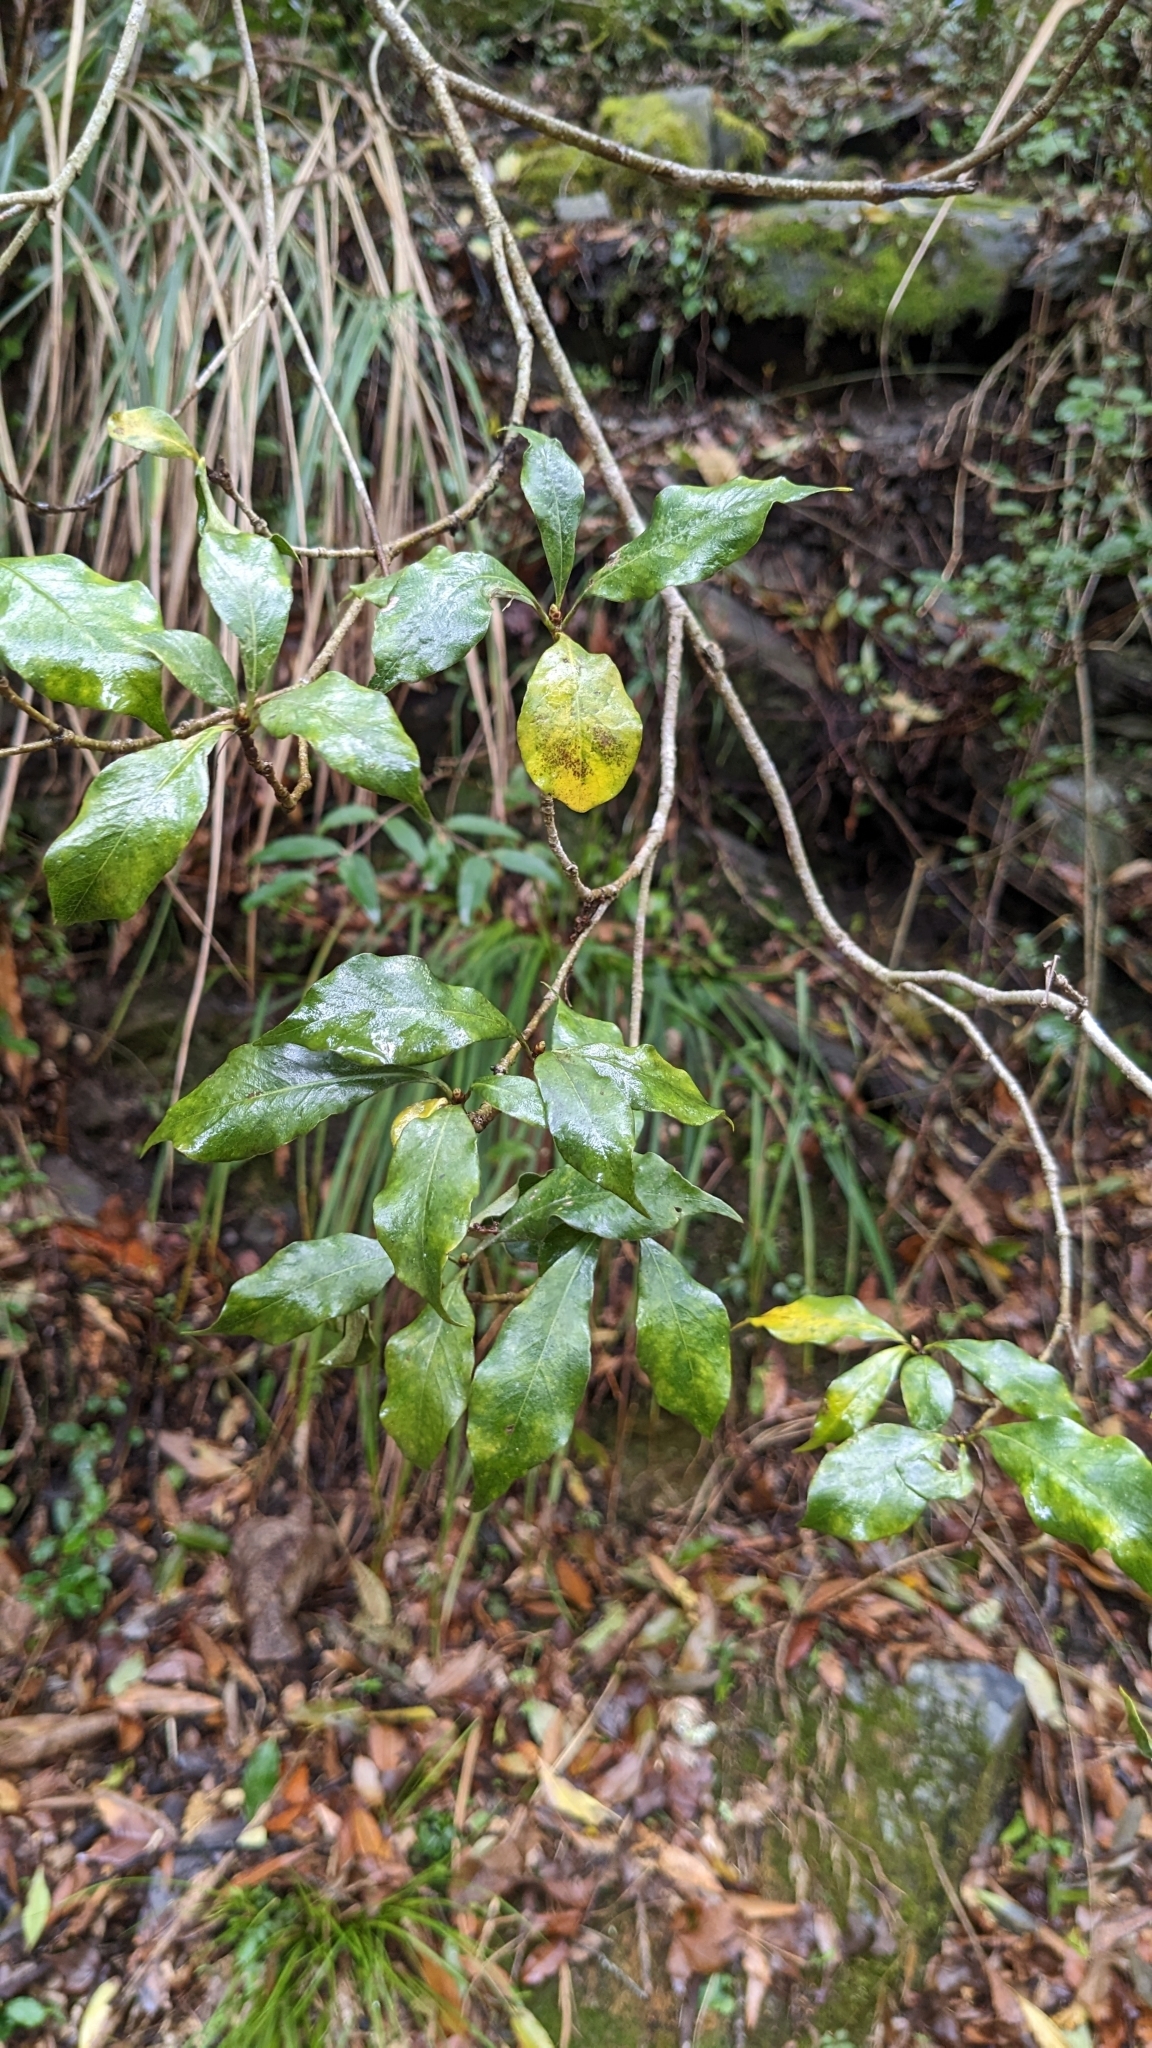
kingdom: Plantae
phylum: Tracheophyta
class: Magnoliopsida
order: Apiales
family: Pittosporaceae
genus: Pittosporum
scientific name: Pittosporum illicioides
